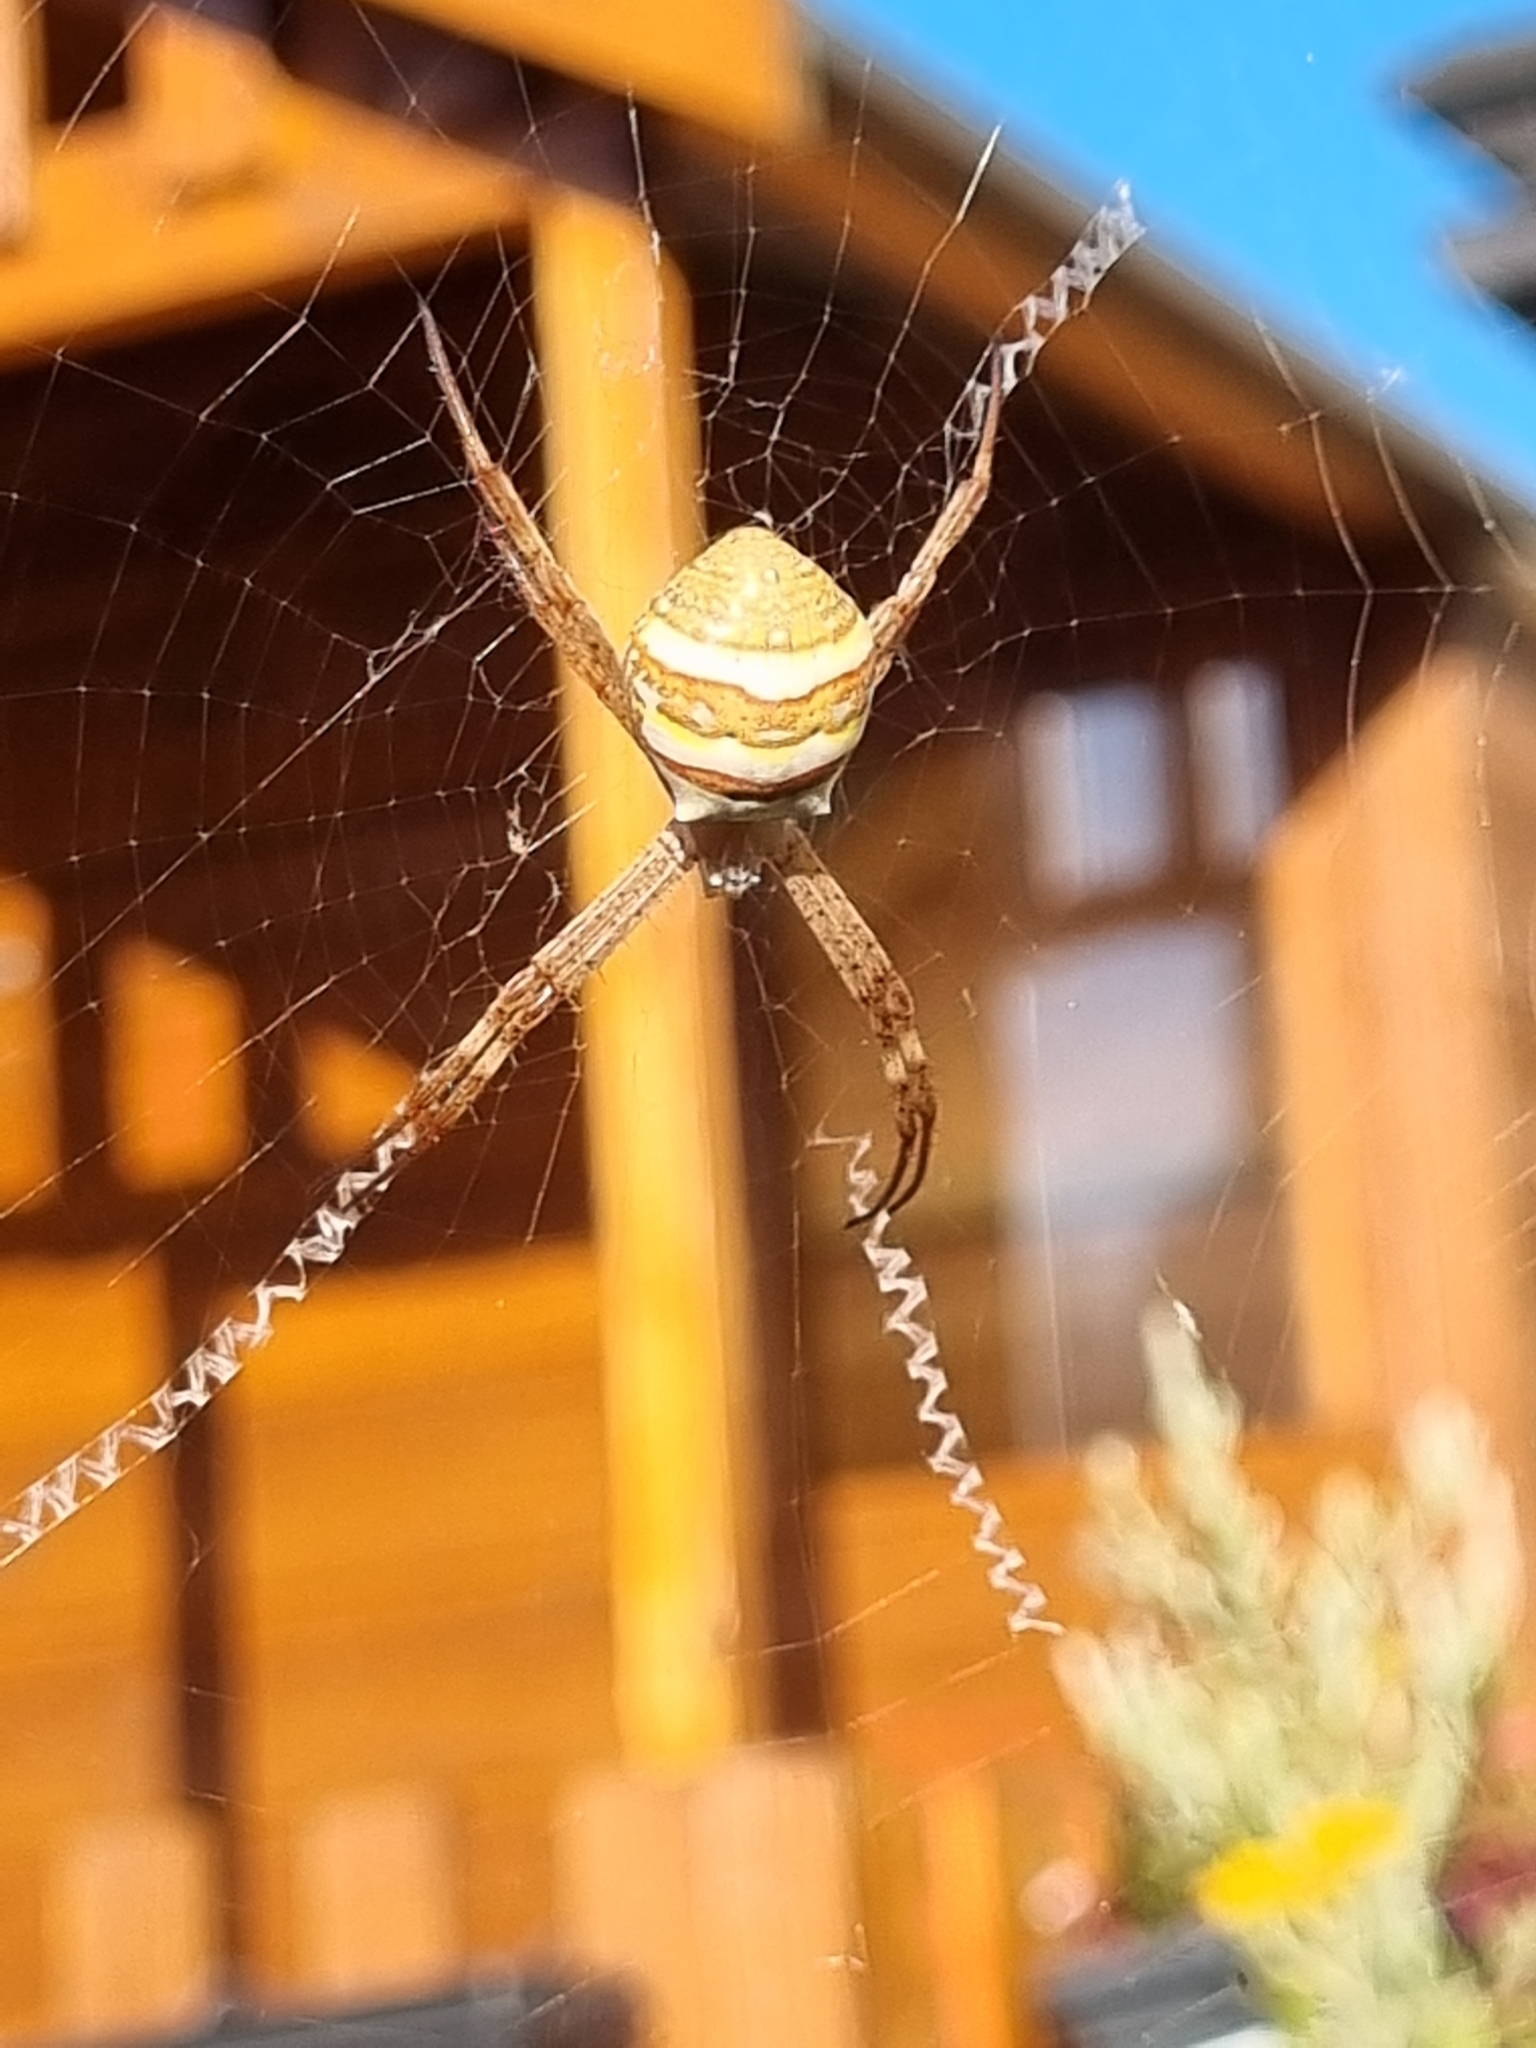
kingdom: Animalia
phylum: Arthropoda
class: Arachnida
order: Araneae
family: Araneidae
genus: Argiope
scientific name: Argiope keyserlingi
